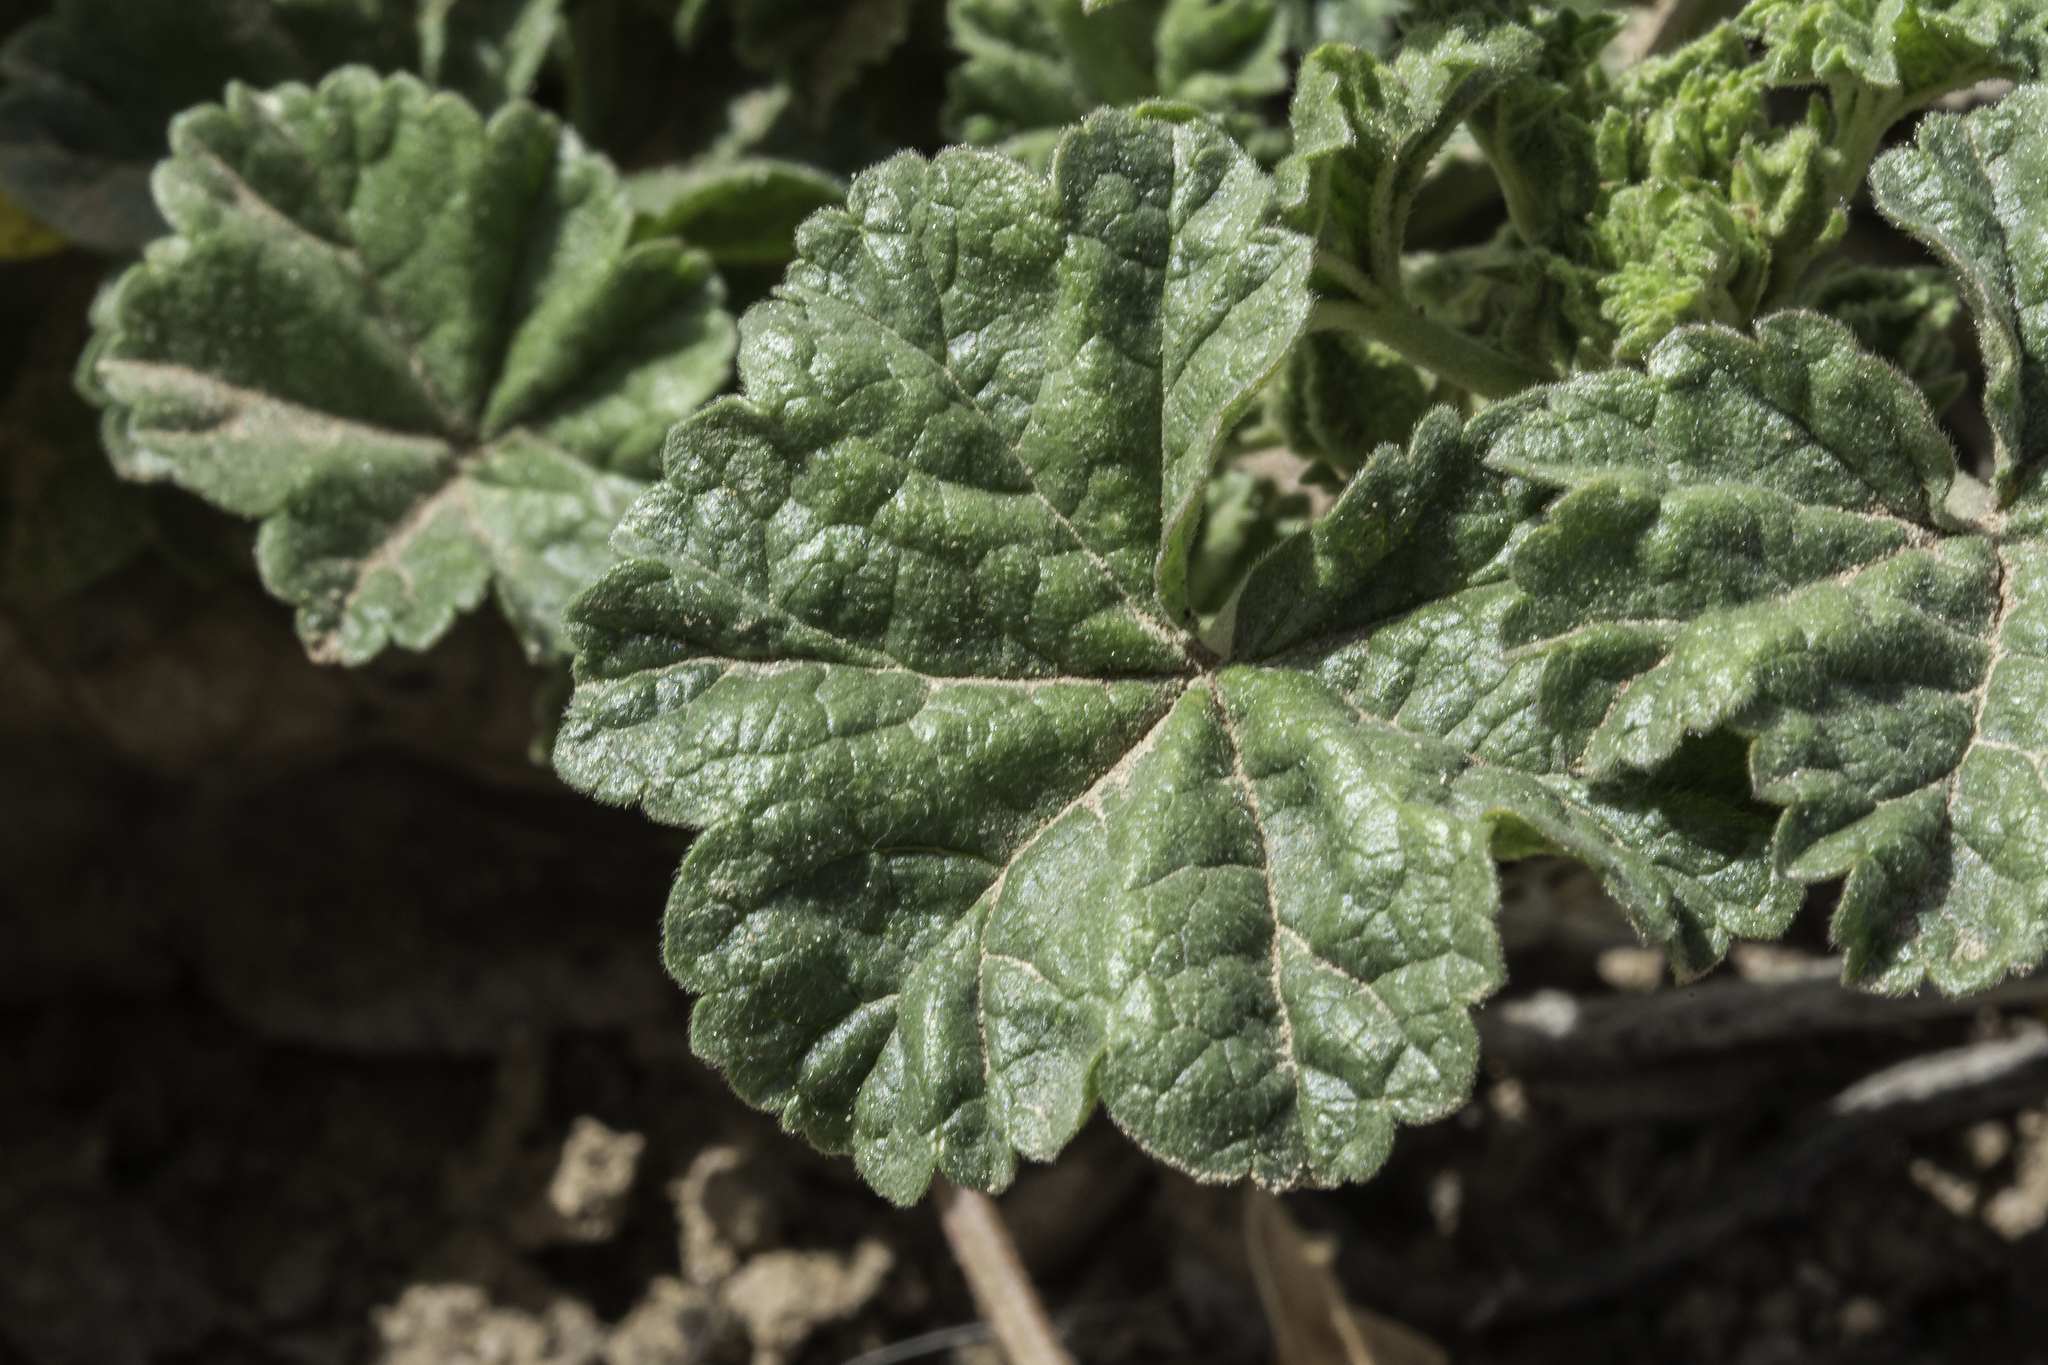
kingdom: Plantae
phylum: Tracheophyta
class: Magnoliopsida
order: Malvales
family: Malvaceae
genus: Malva
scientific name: Malva neglecta
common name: Common mallow
